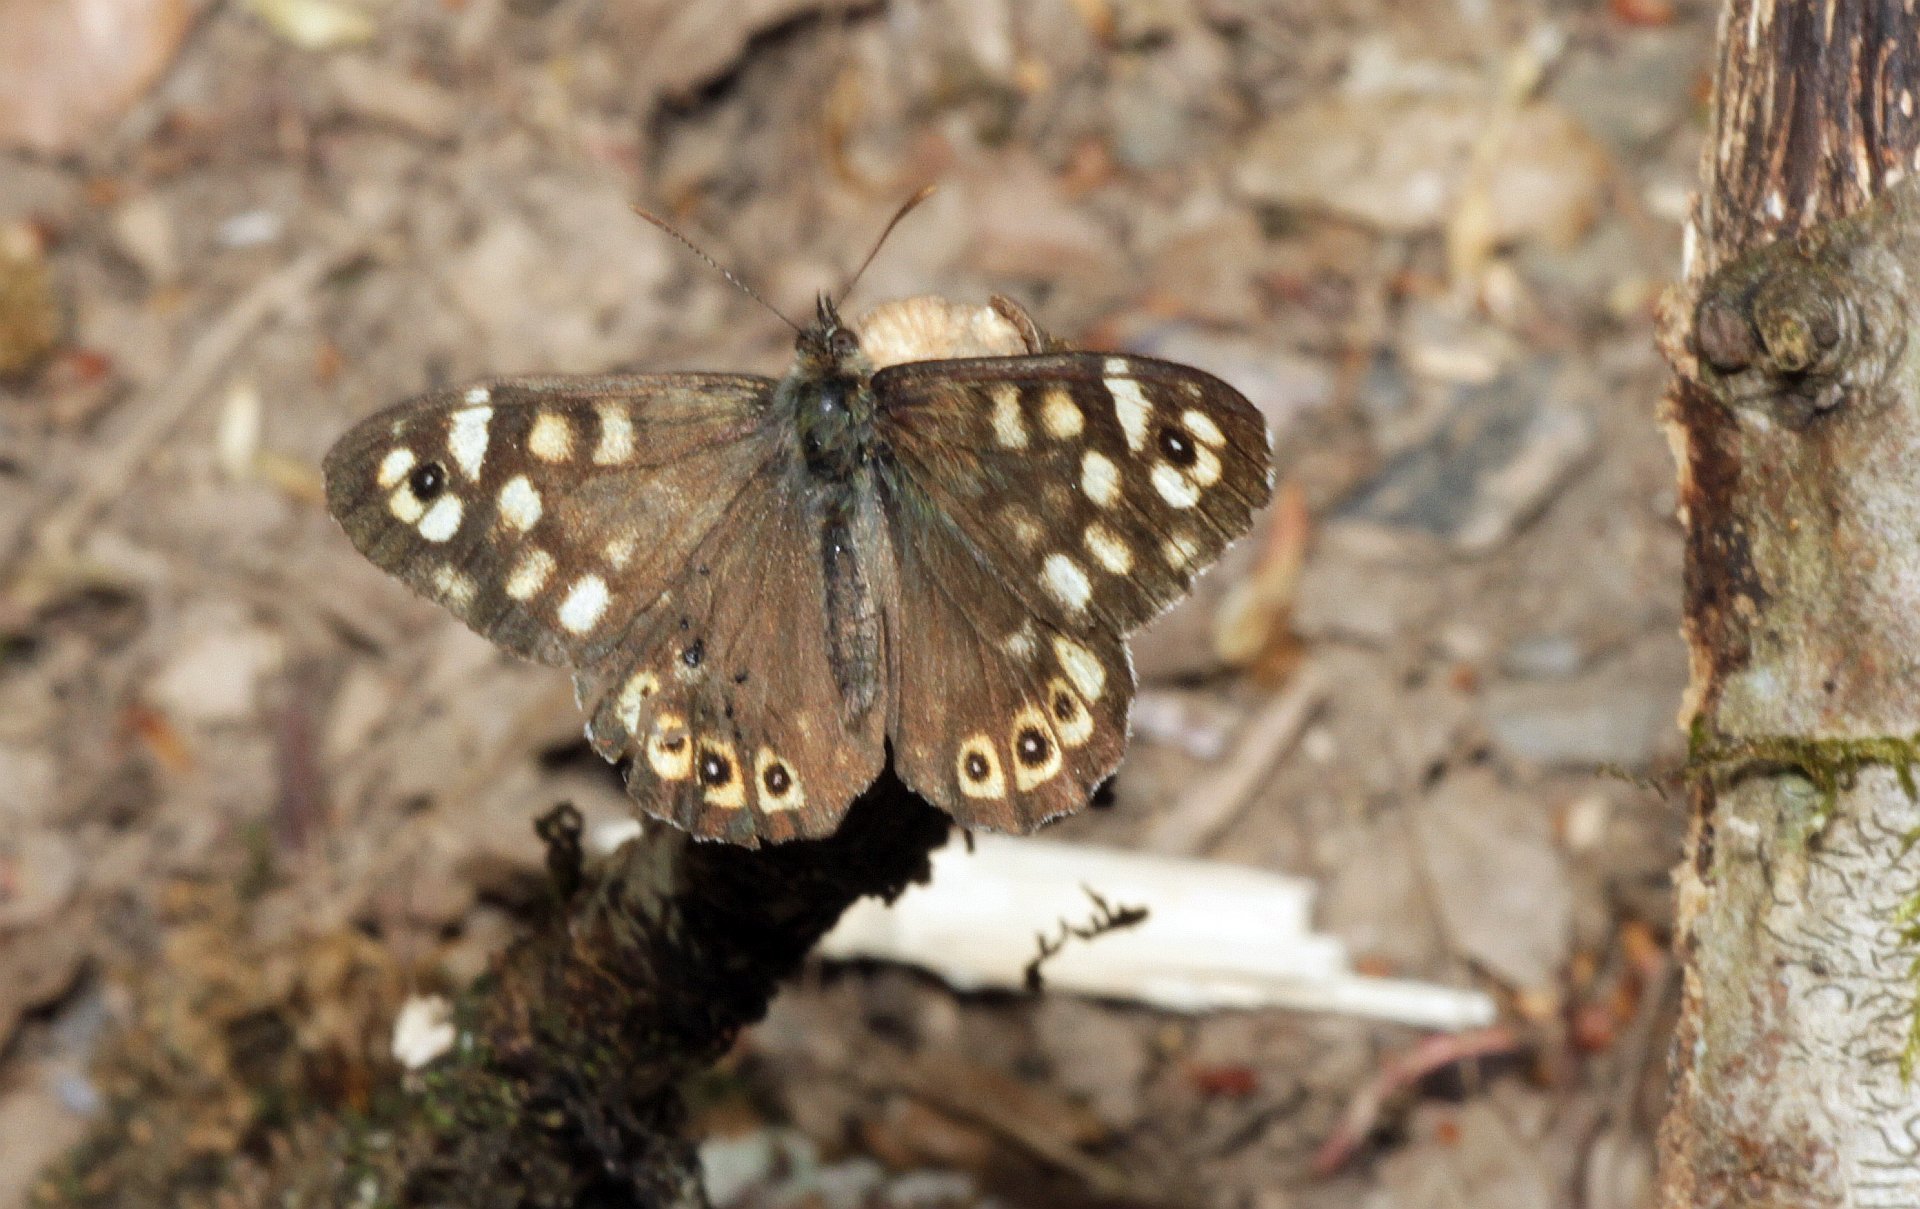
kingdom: Animalia
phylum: Arthropoda
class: Insecta
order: Lepidoptera
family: Nymphalidae
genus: Pararge
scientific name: Pararge aegeria
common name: Speckled wood
